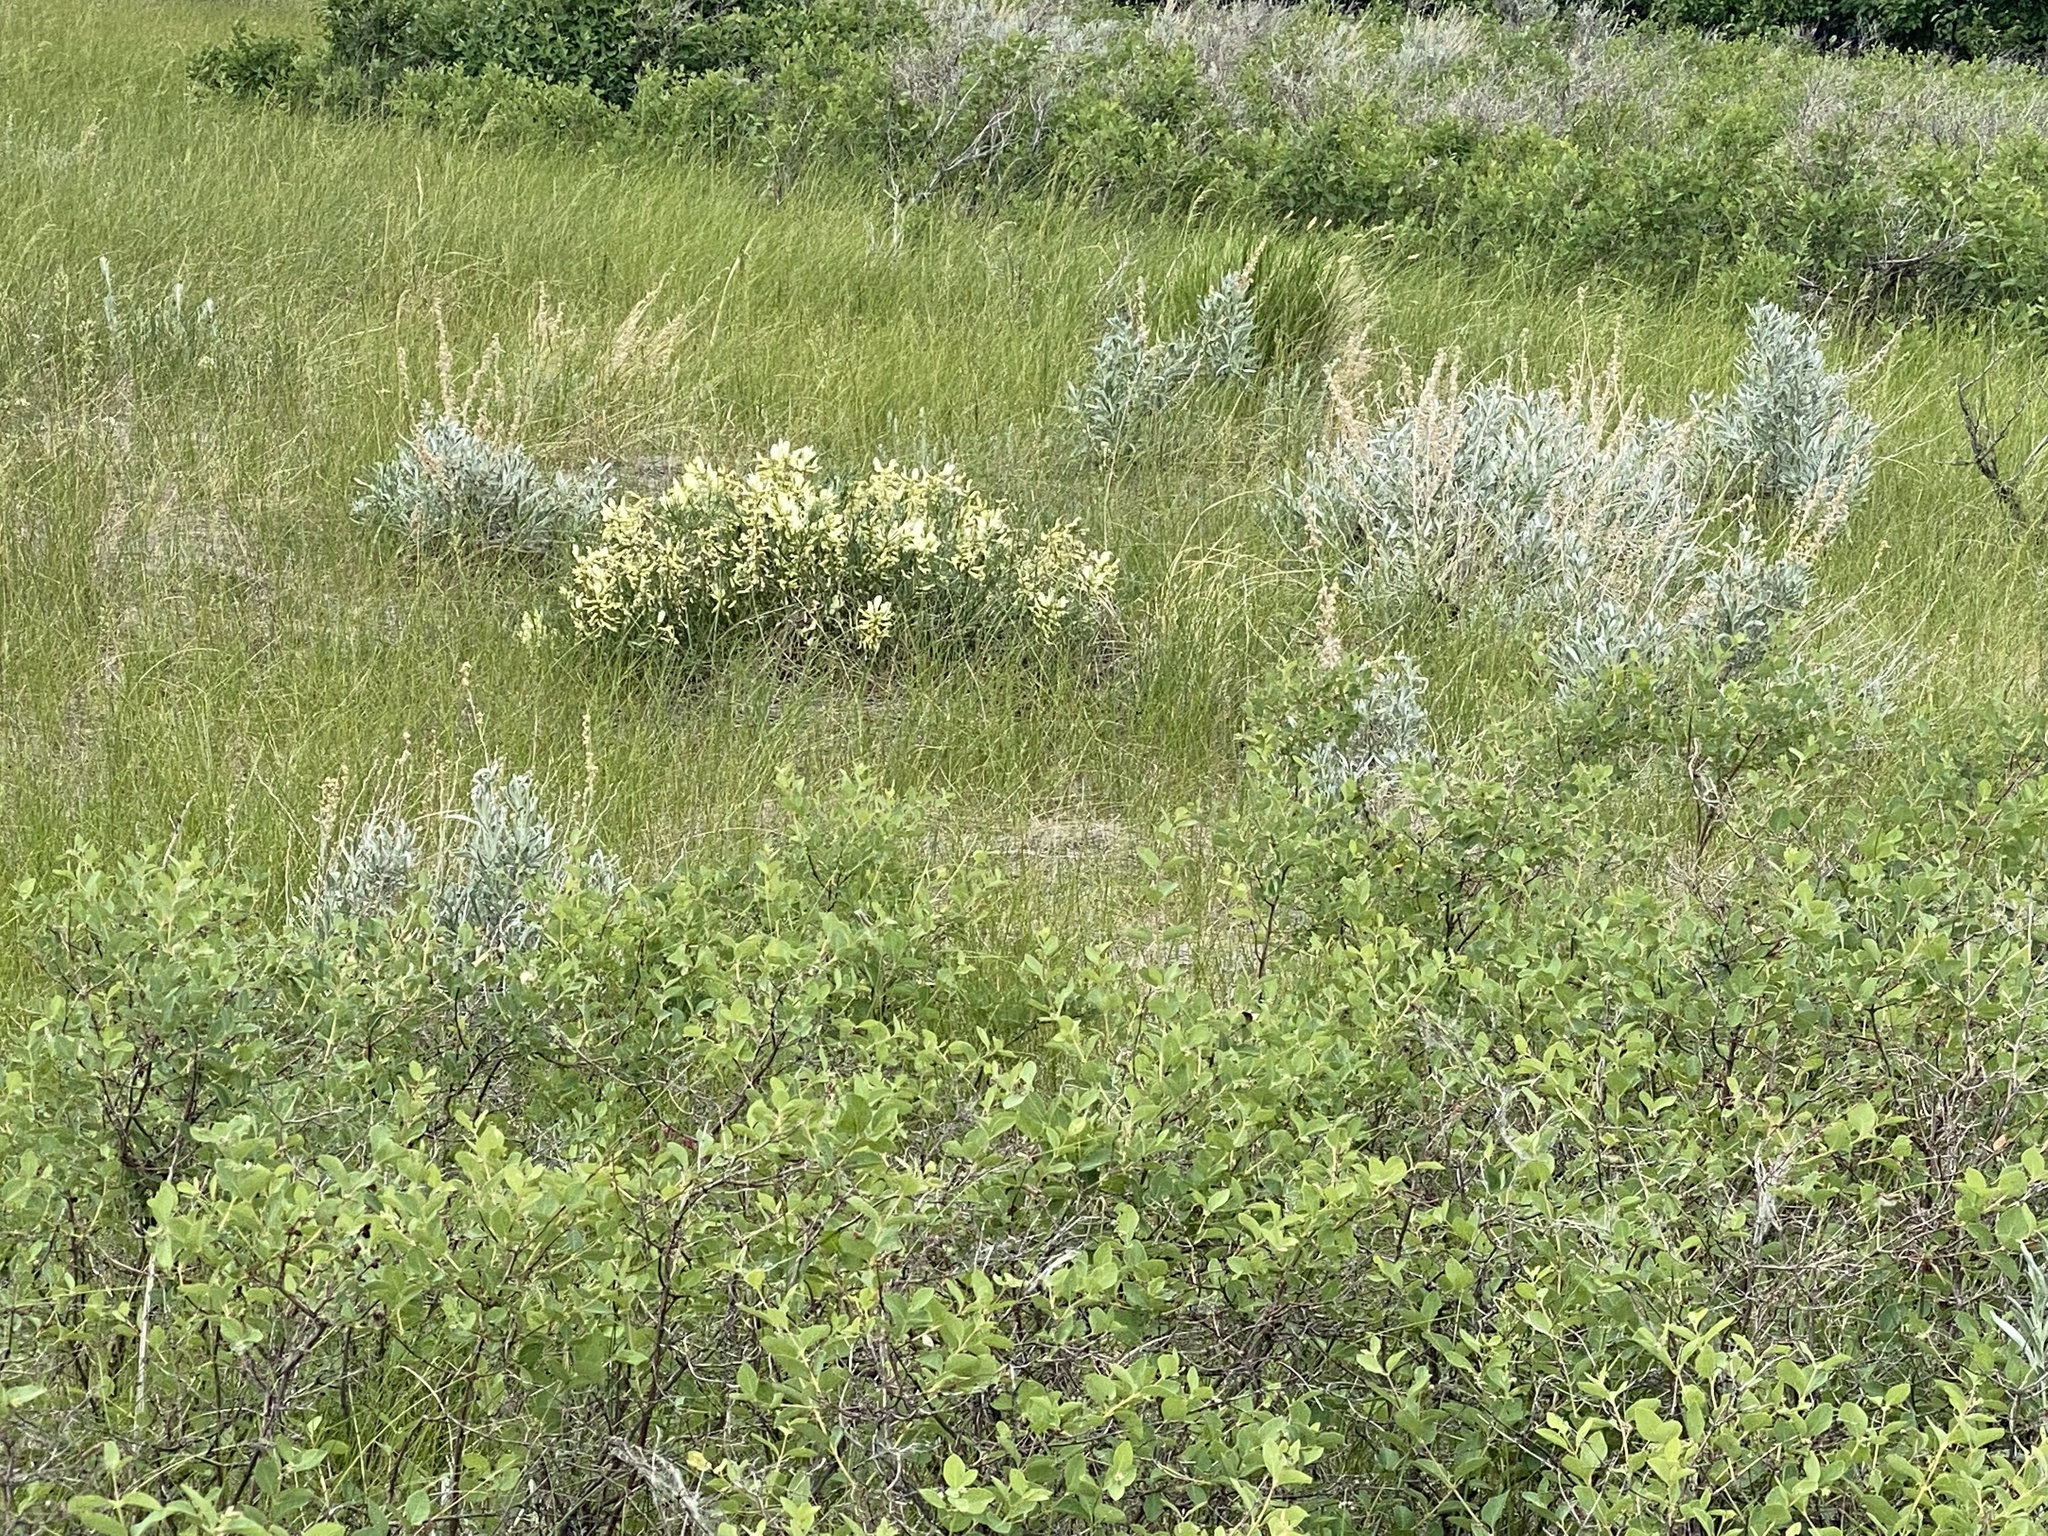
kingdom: Plantae
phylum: Tracheophyta
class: Magnoliopsida
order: Fabales
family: Fabaceae
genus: Astragalus
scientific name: Astragalus pectinatus
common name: Tine-leaf milk-vetch
